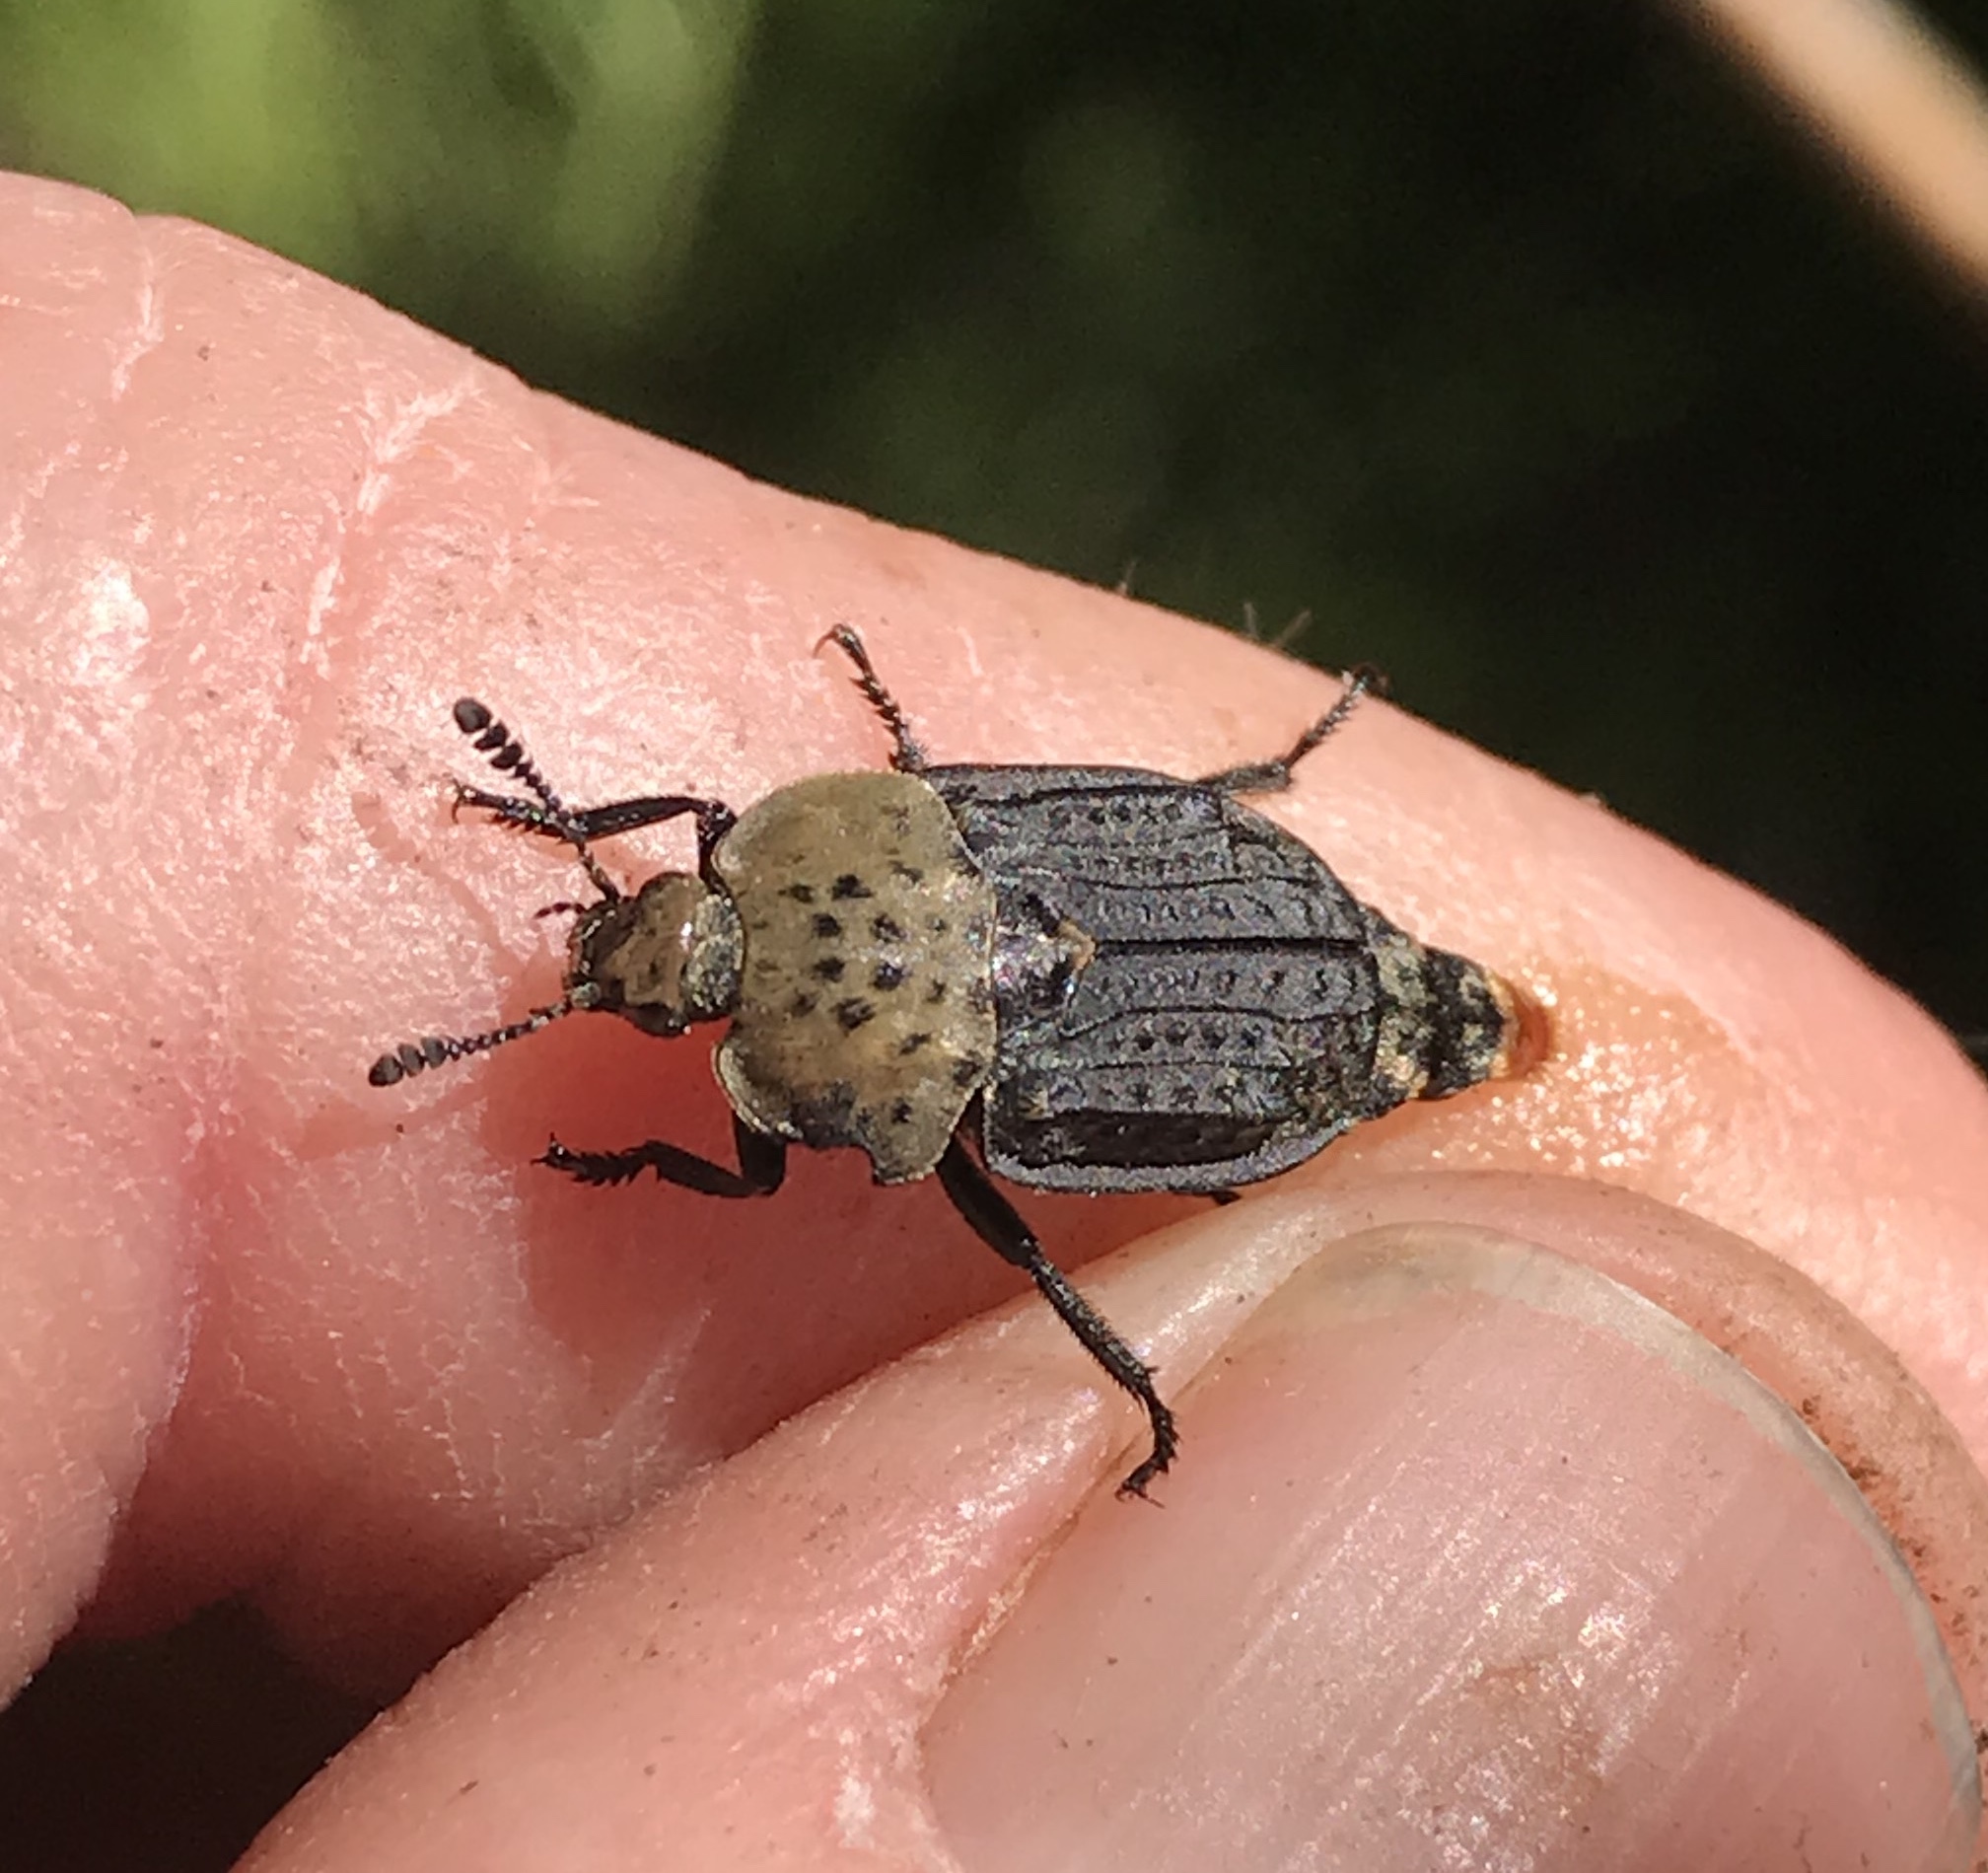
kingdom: Animalia
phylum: Arthropoda
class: Insecta
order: Coleoptera
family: Staphylinidae
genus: Thanatophilus
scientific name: Thanatophilus lapponicus
